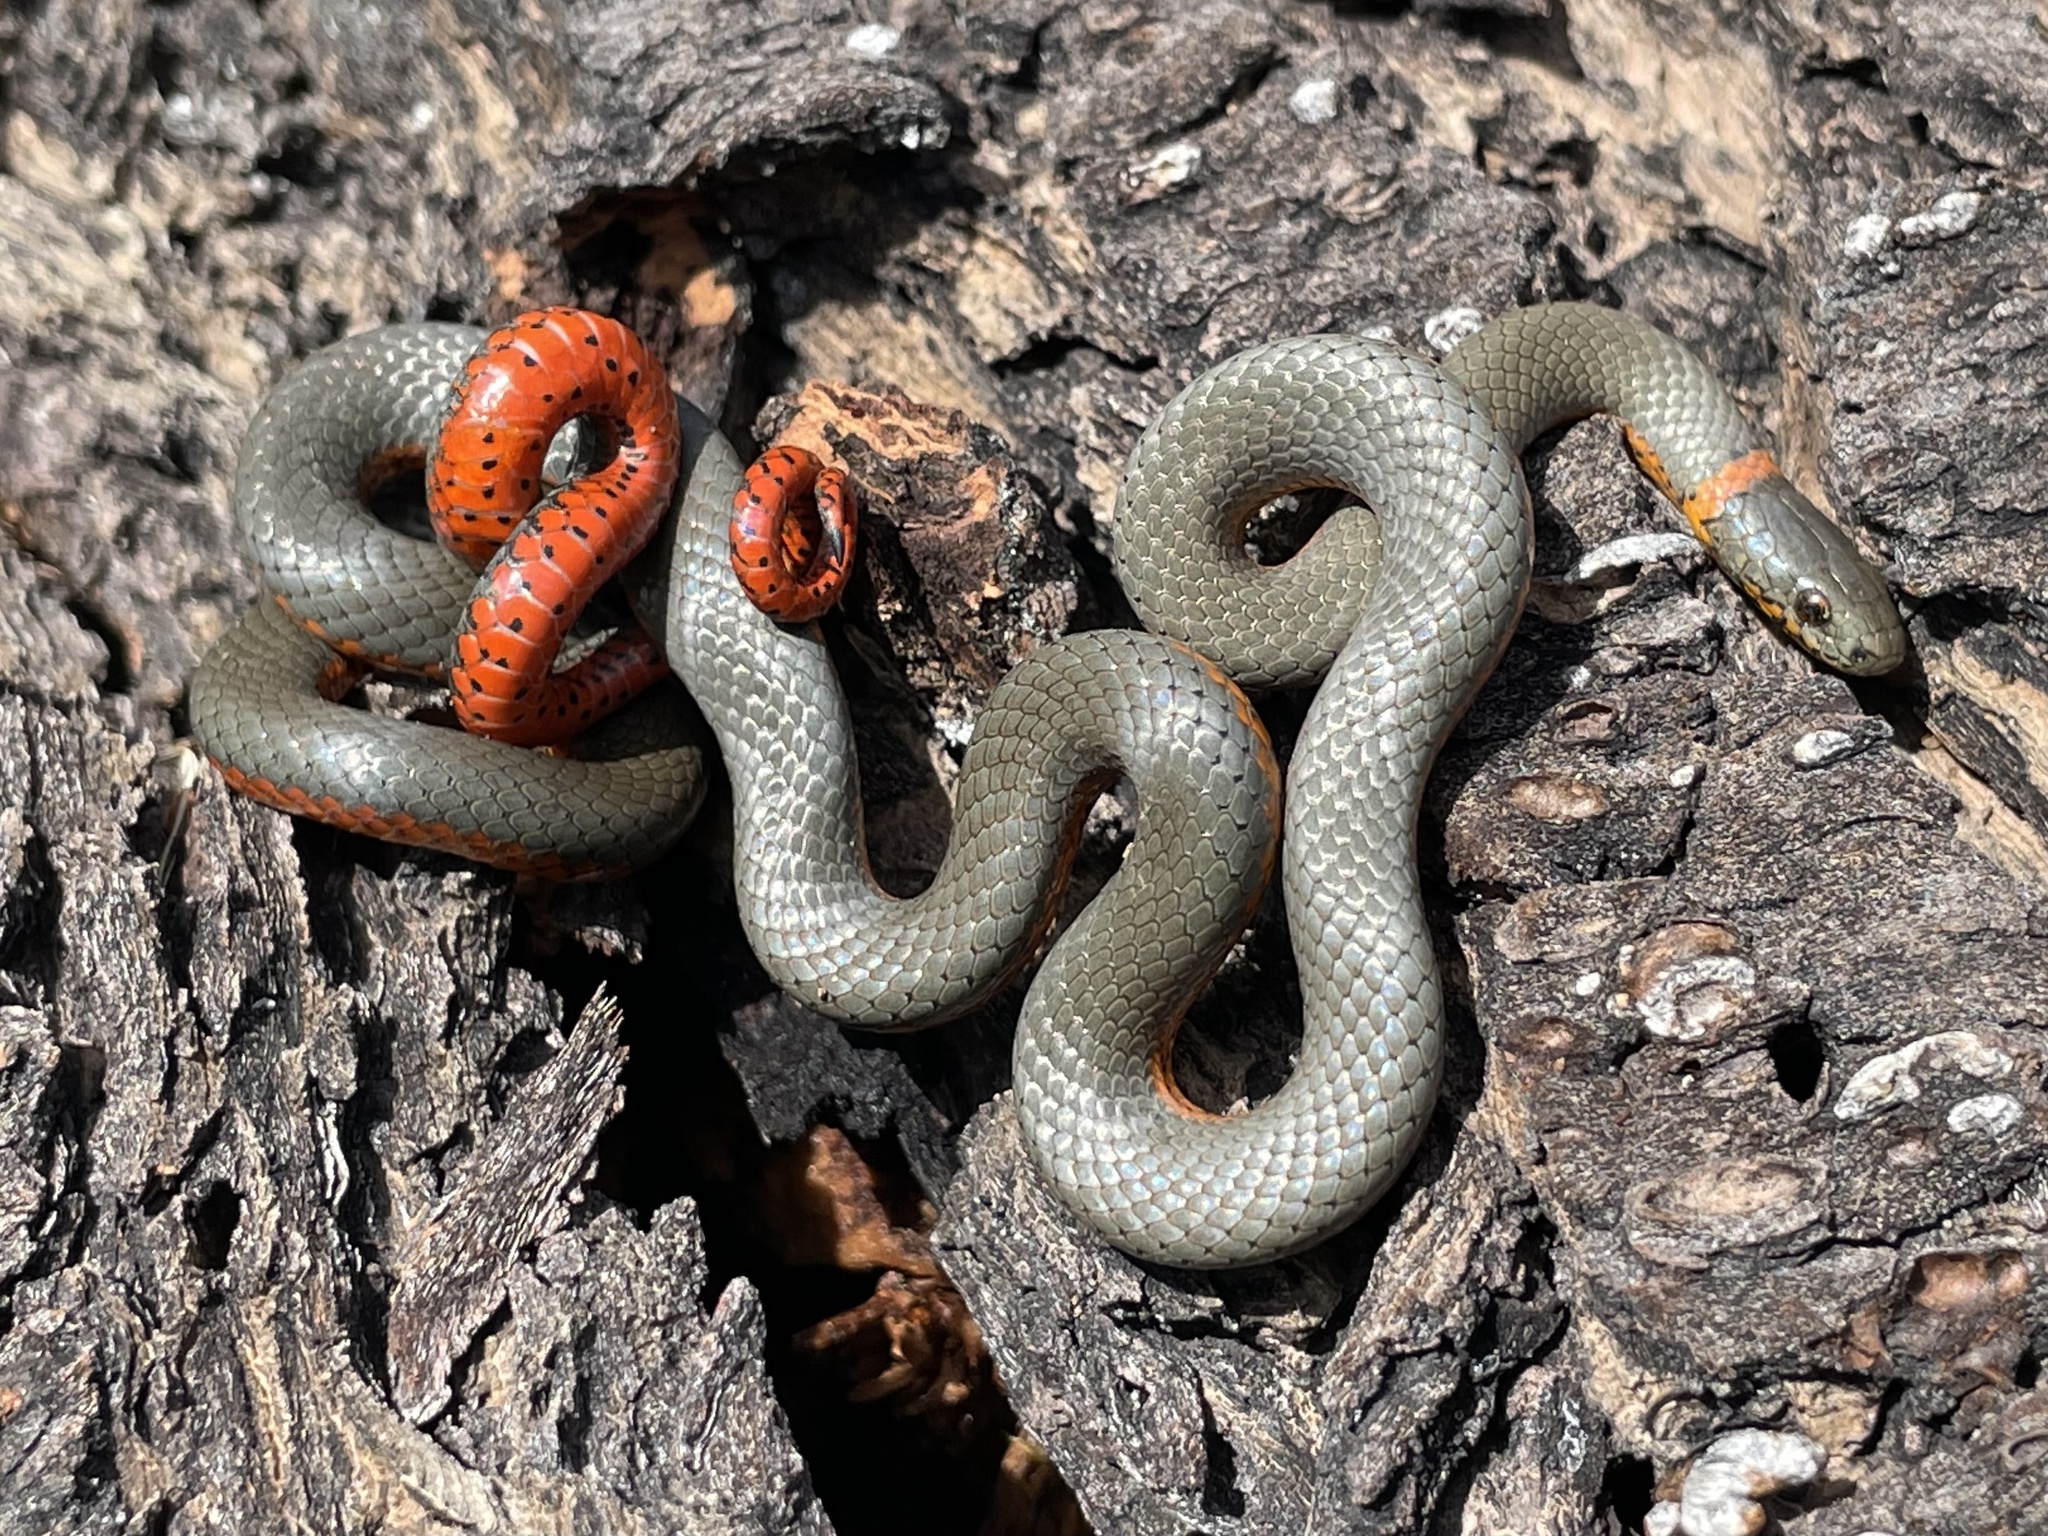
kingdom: Animalia
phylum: Chordata
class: Squamata
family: Colubridae
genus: Diadophis
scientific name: Diadophis punctatus
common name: Ringneck snake
